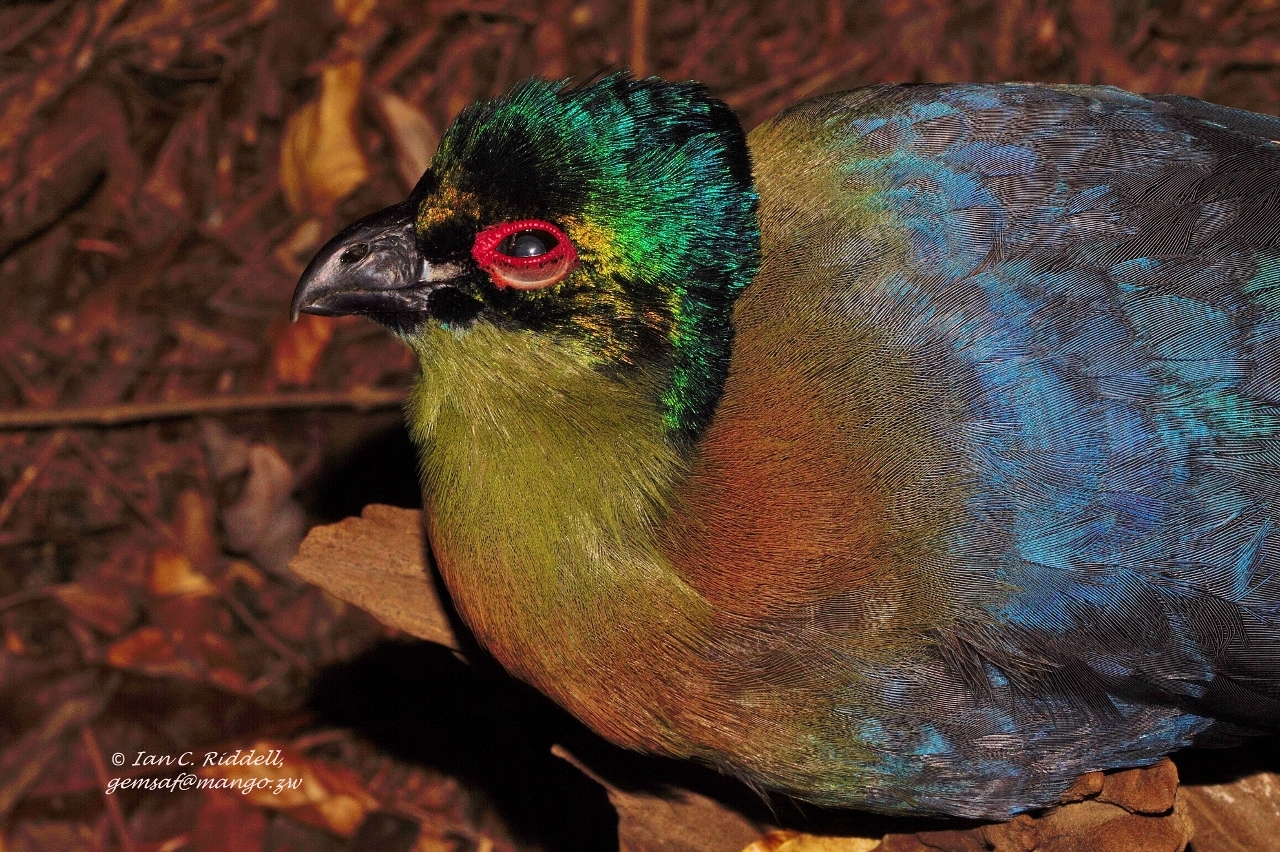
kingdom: Animalia
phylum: Chordata
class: Aves
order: Musophagiformes
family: Musophagidae
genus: Tauraco
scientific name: Tauraco porphyreolophus
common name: Purple-crested turaco
